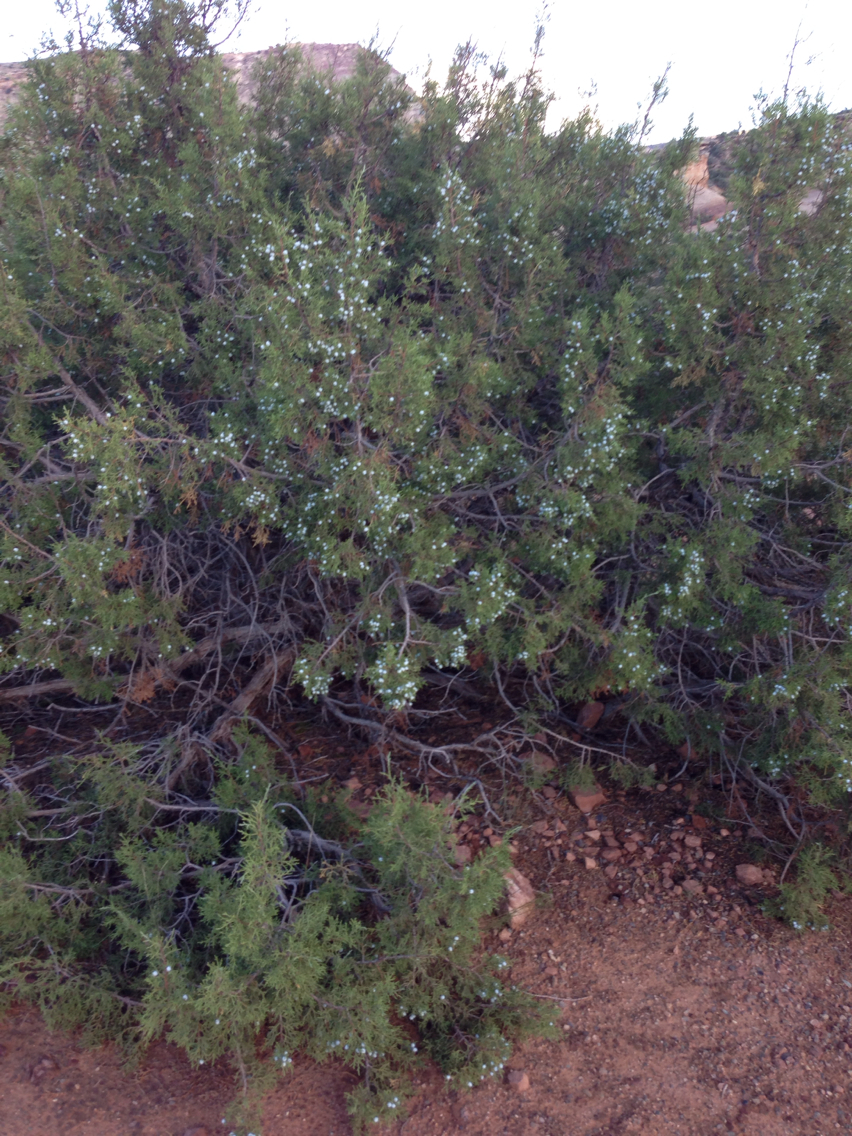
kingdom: Plantae
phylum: Tracheophyta
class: Pinopsida
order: Pinales
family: Cupressaceae
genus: Juniperus
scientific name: Juniperus osteosperma
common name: Utah juniper
